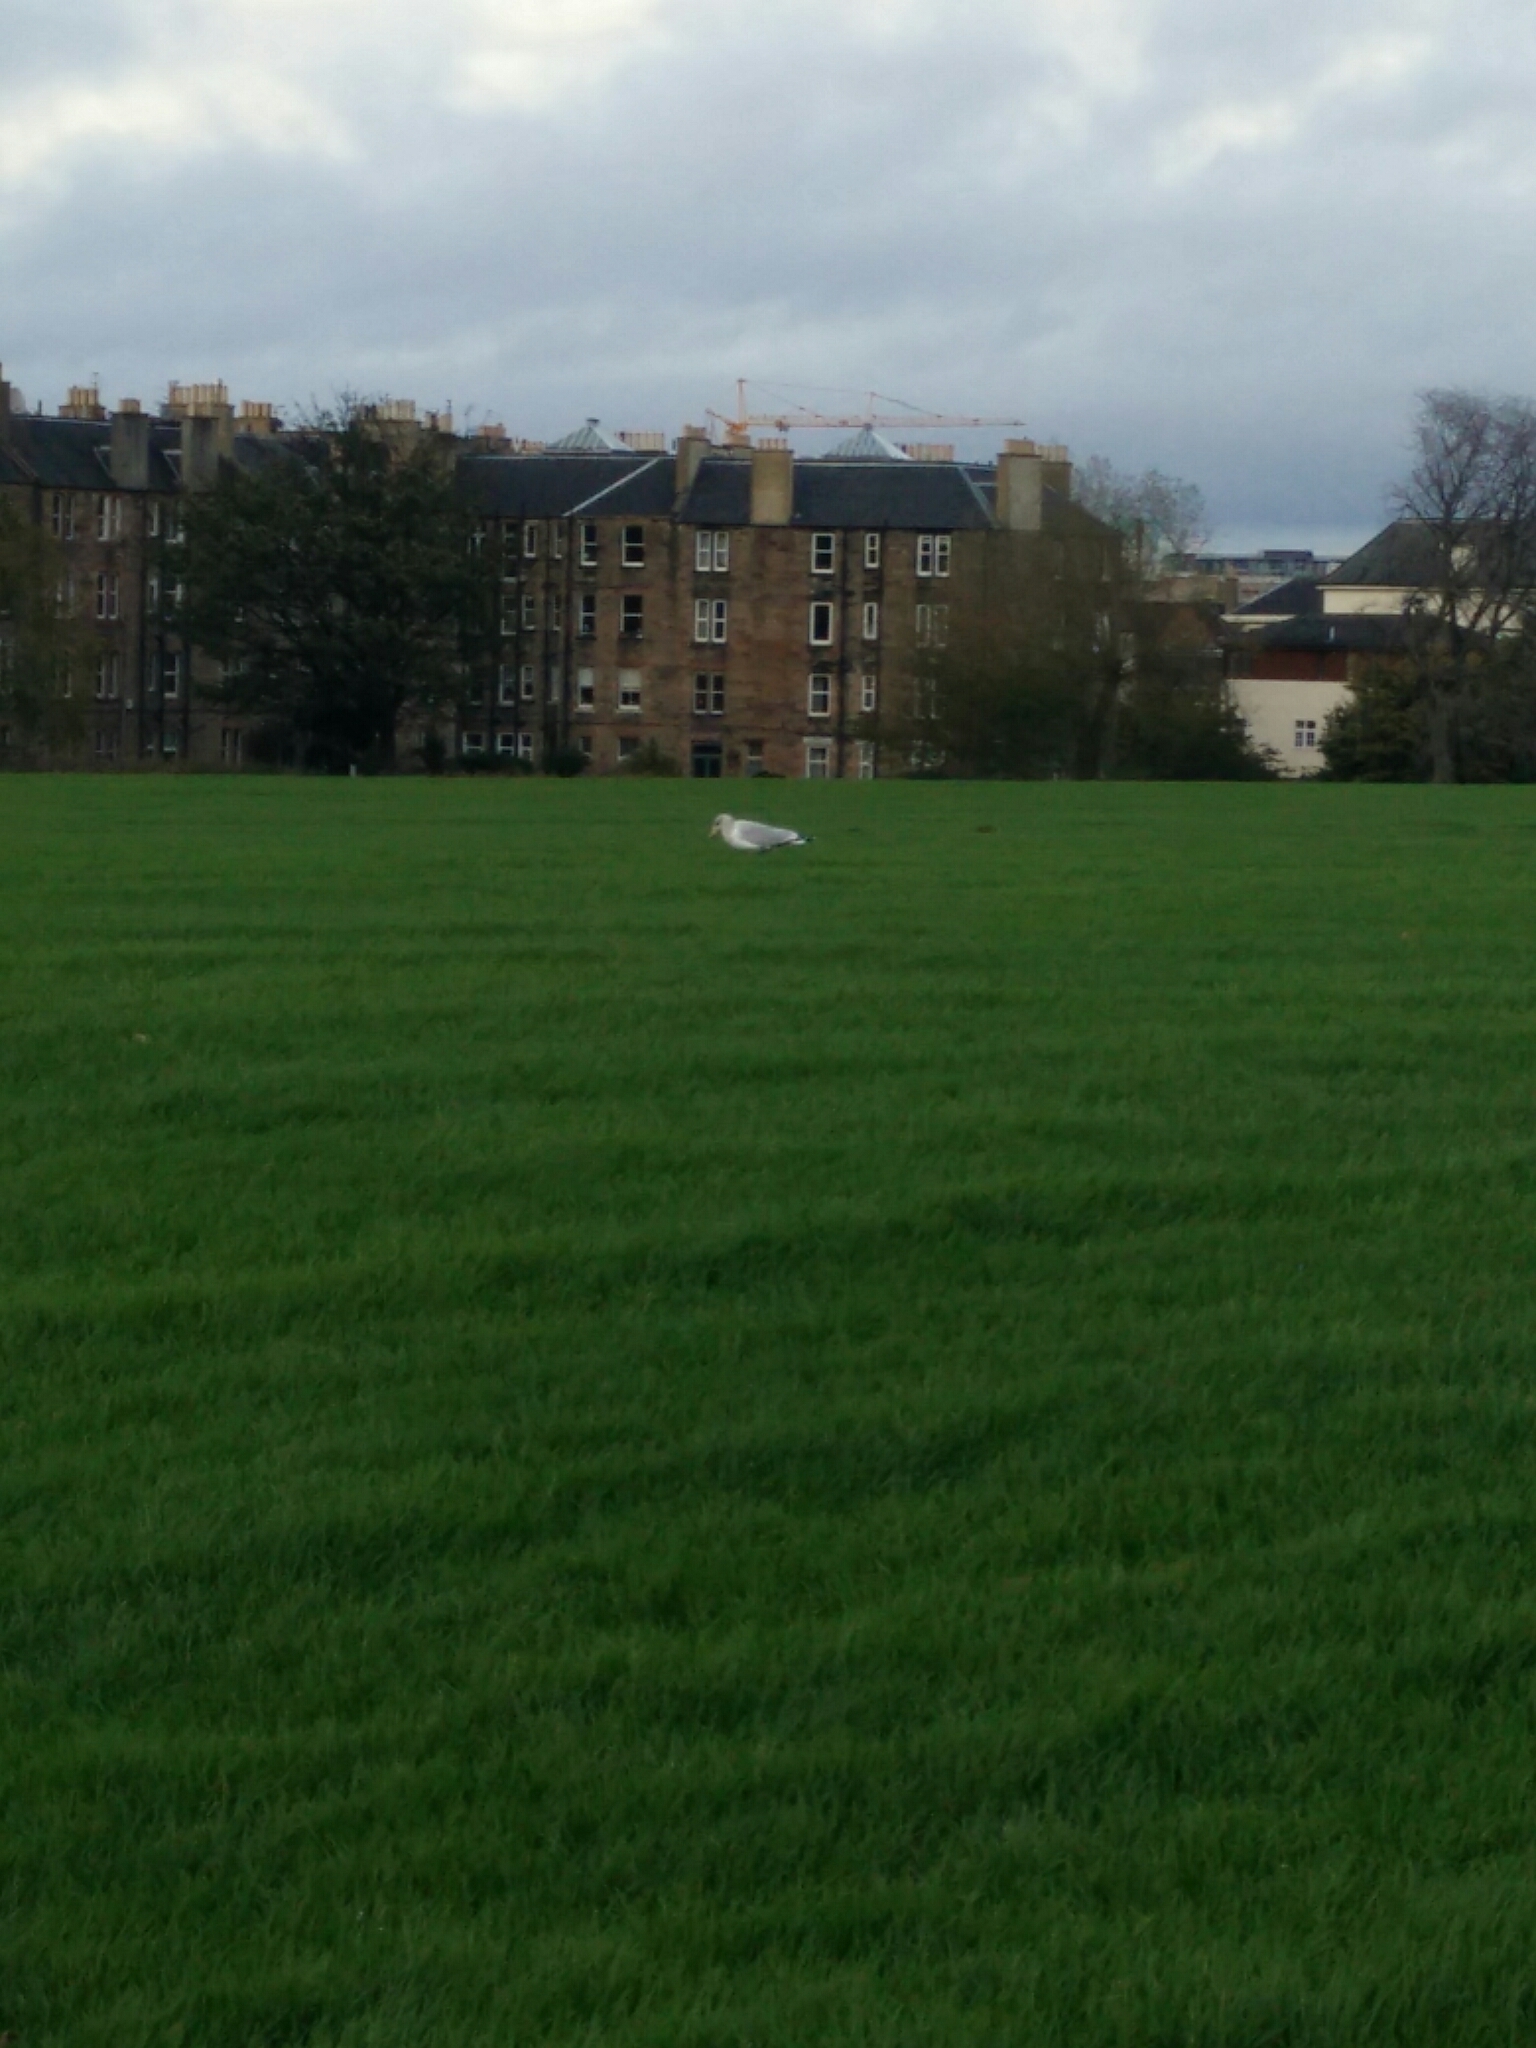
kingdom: Animalia
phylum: Chordata
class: Aves
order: Charadriiformes
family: Laridae
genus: Larus
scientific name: Larus argentatus
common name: Herring gull
